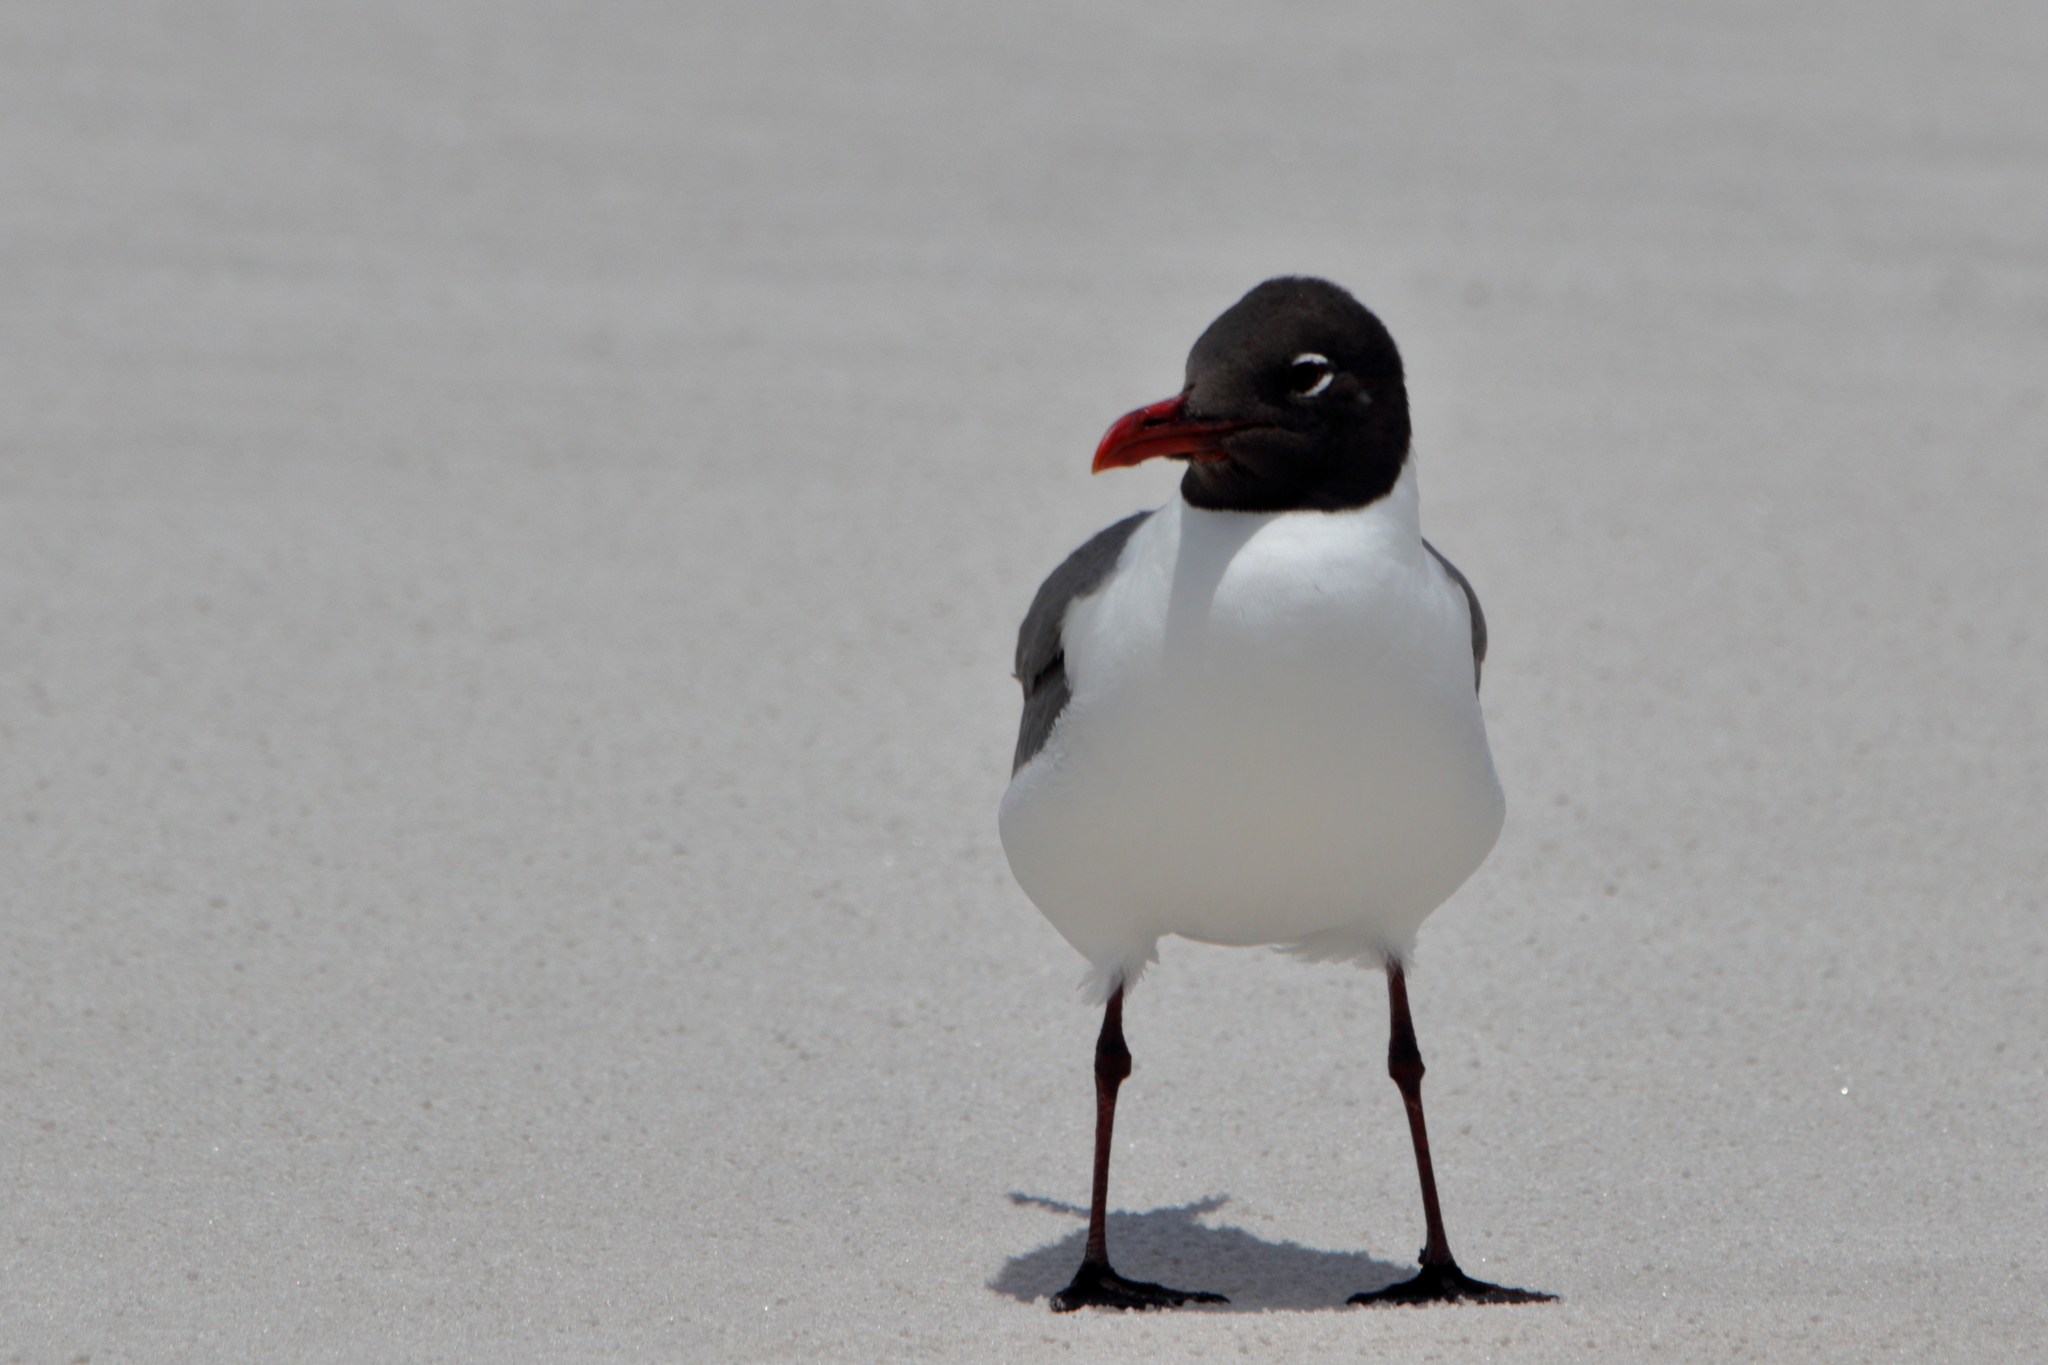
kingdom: Animalia
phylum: Chordata
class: Aves
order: Charadriiformes
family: Laridae
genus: Leucophaeus
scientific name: Leucophaeus atricilla
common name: Laughing gull
